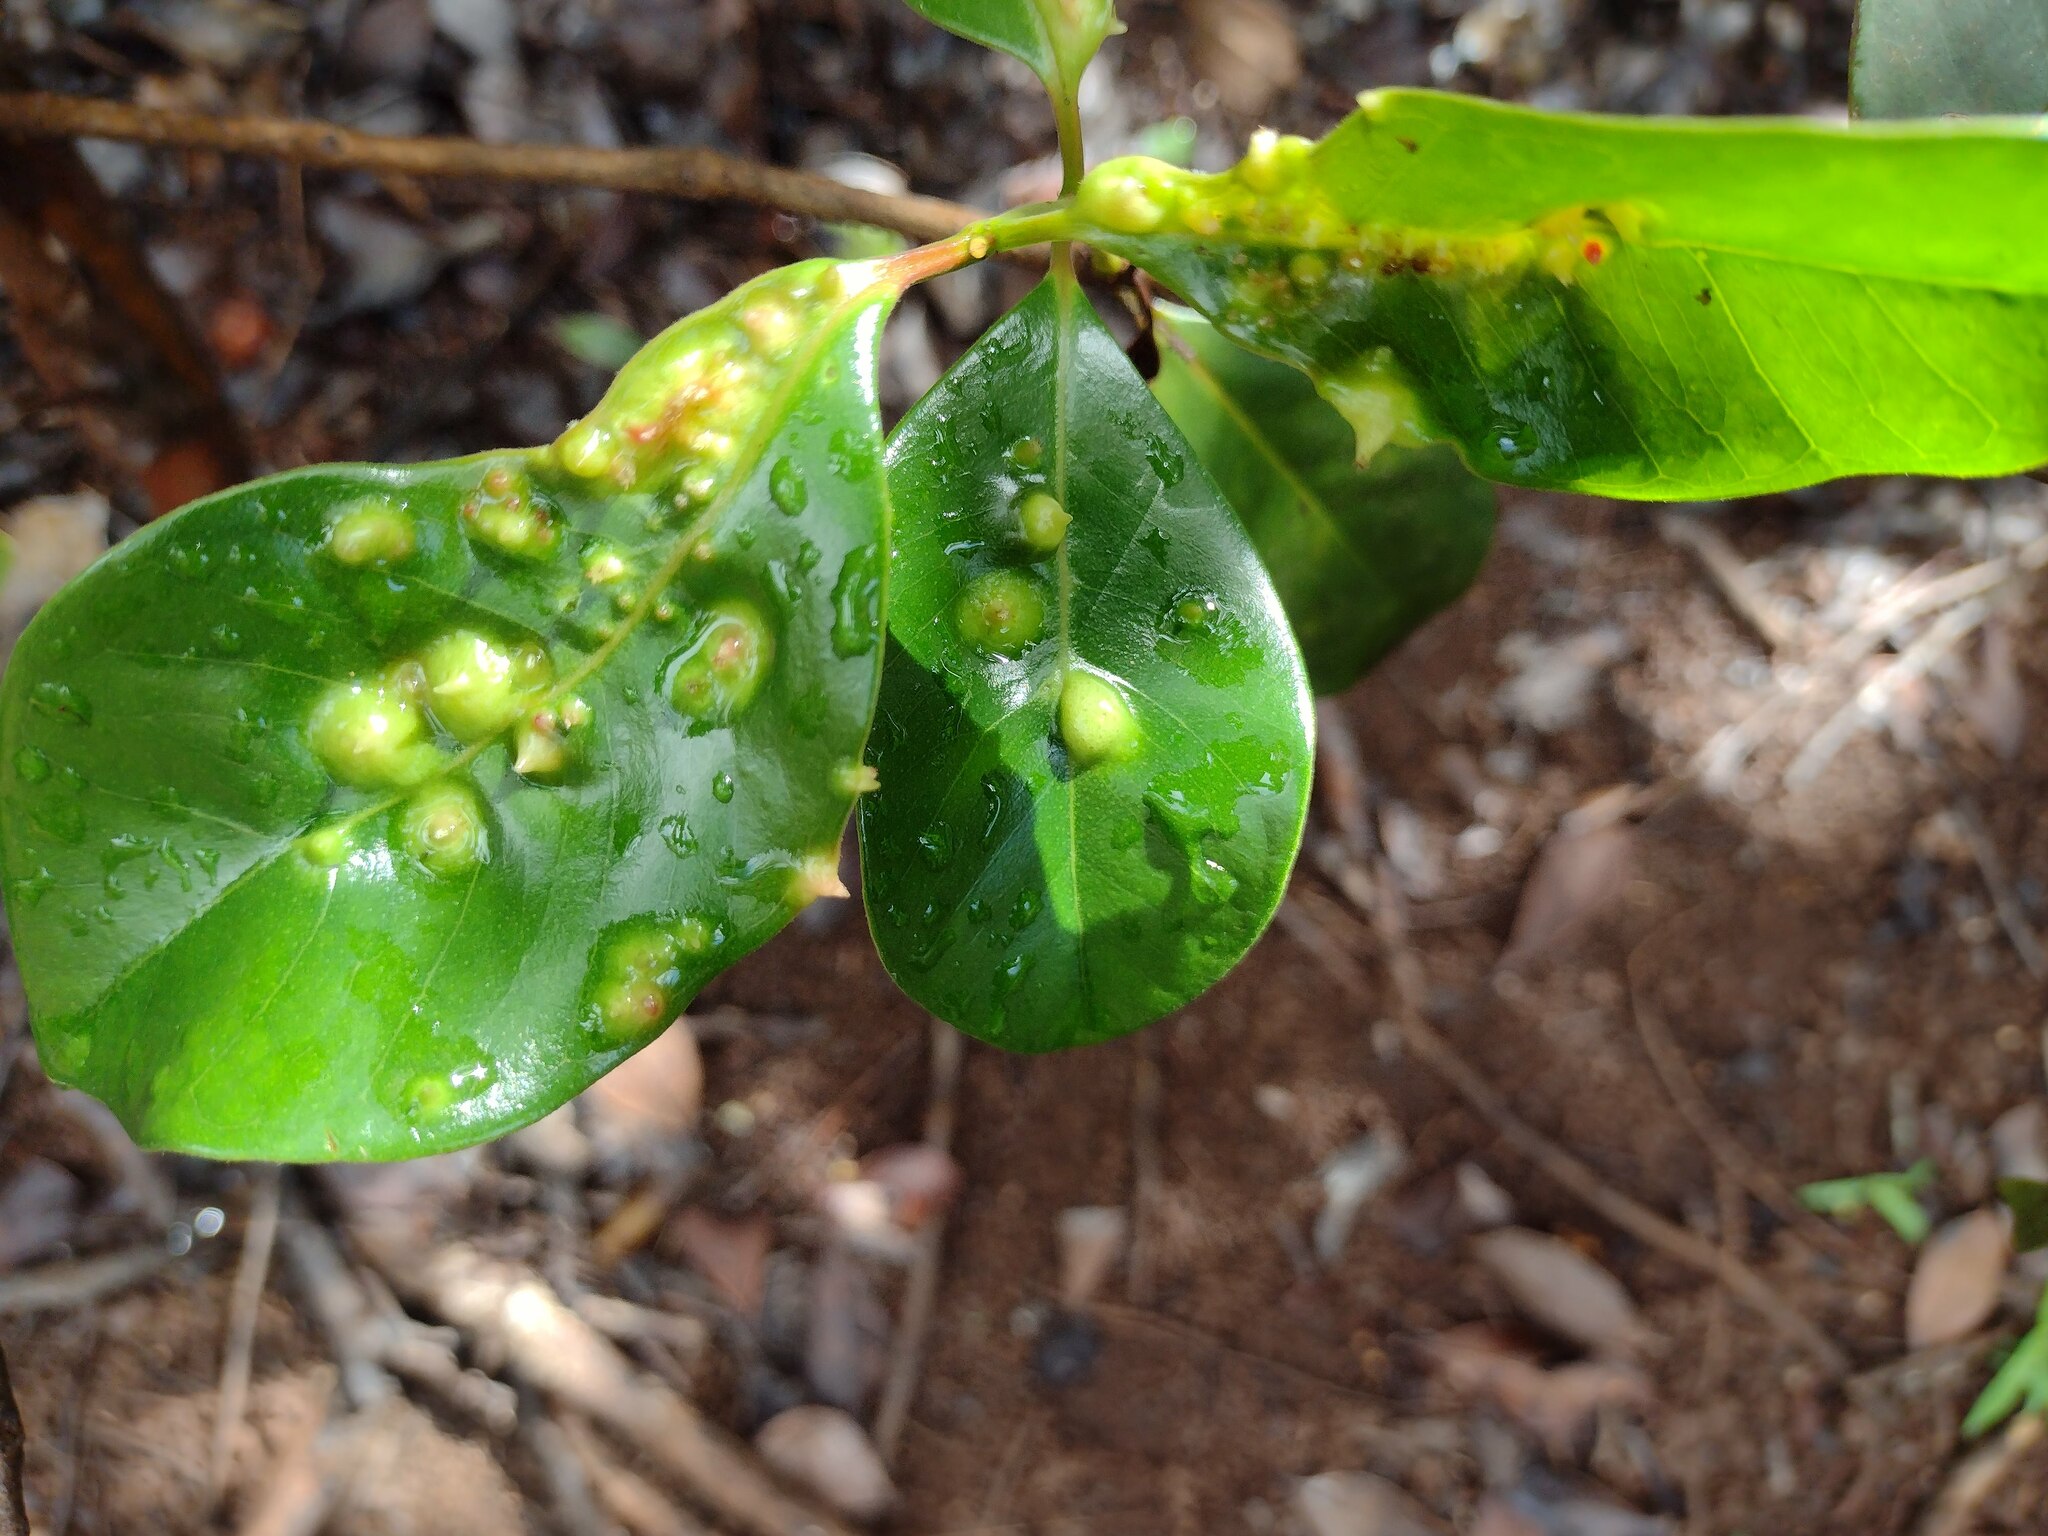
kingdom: Animalia
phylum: Arthropoda
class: Insecta
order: Hemiptera
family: Eriococcidae
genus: Tectococcus
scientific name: Tectococcus ovatus
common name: Eriococcid scale
